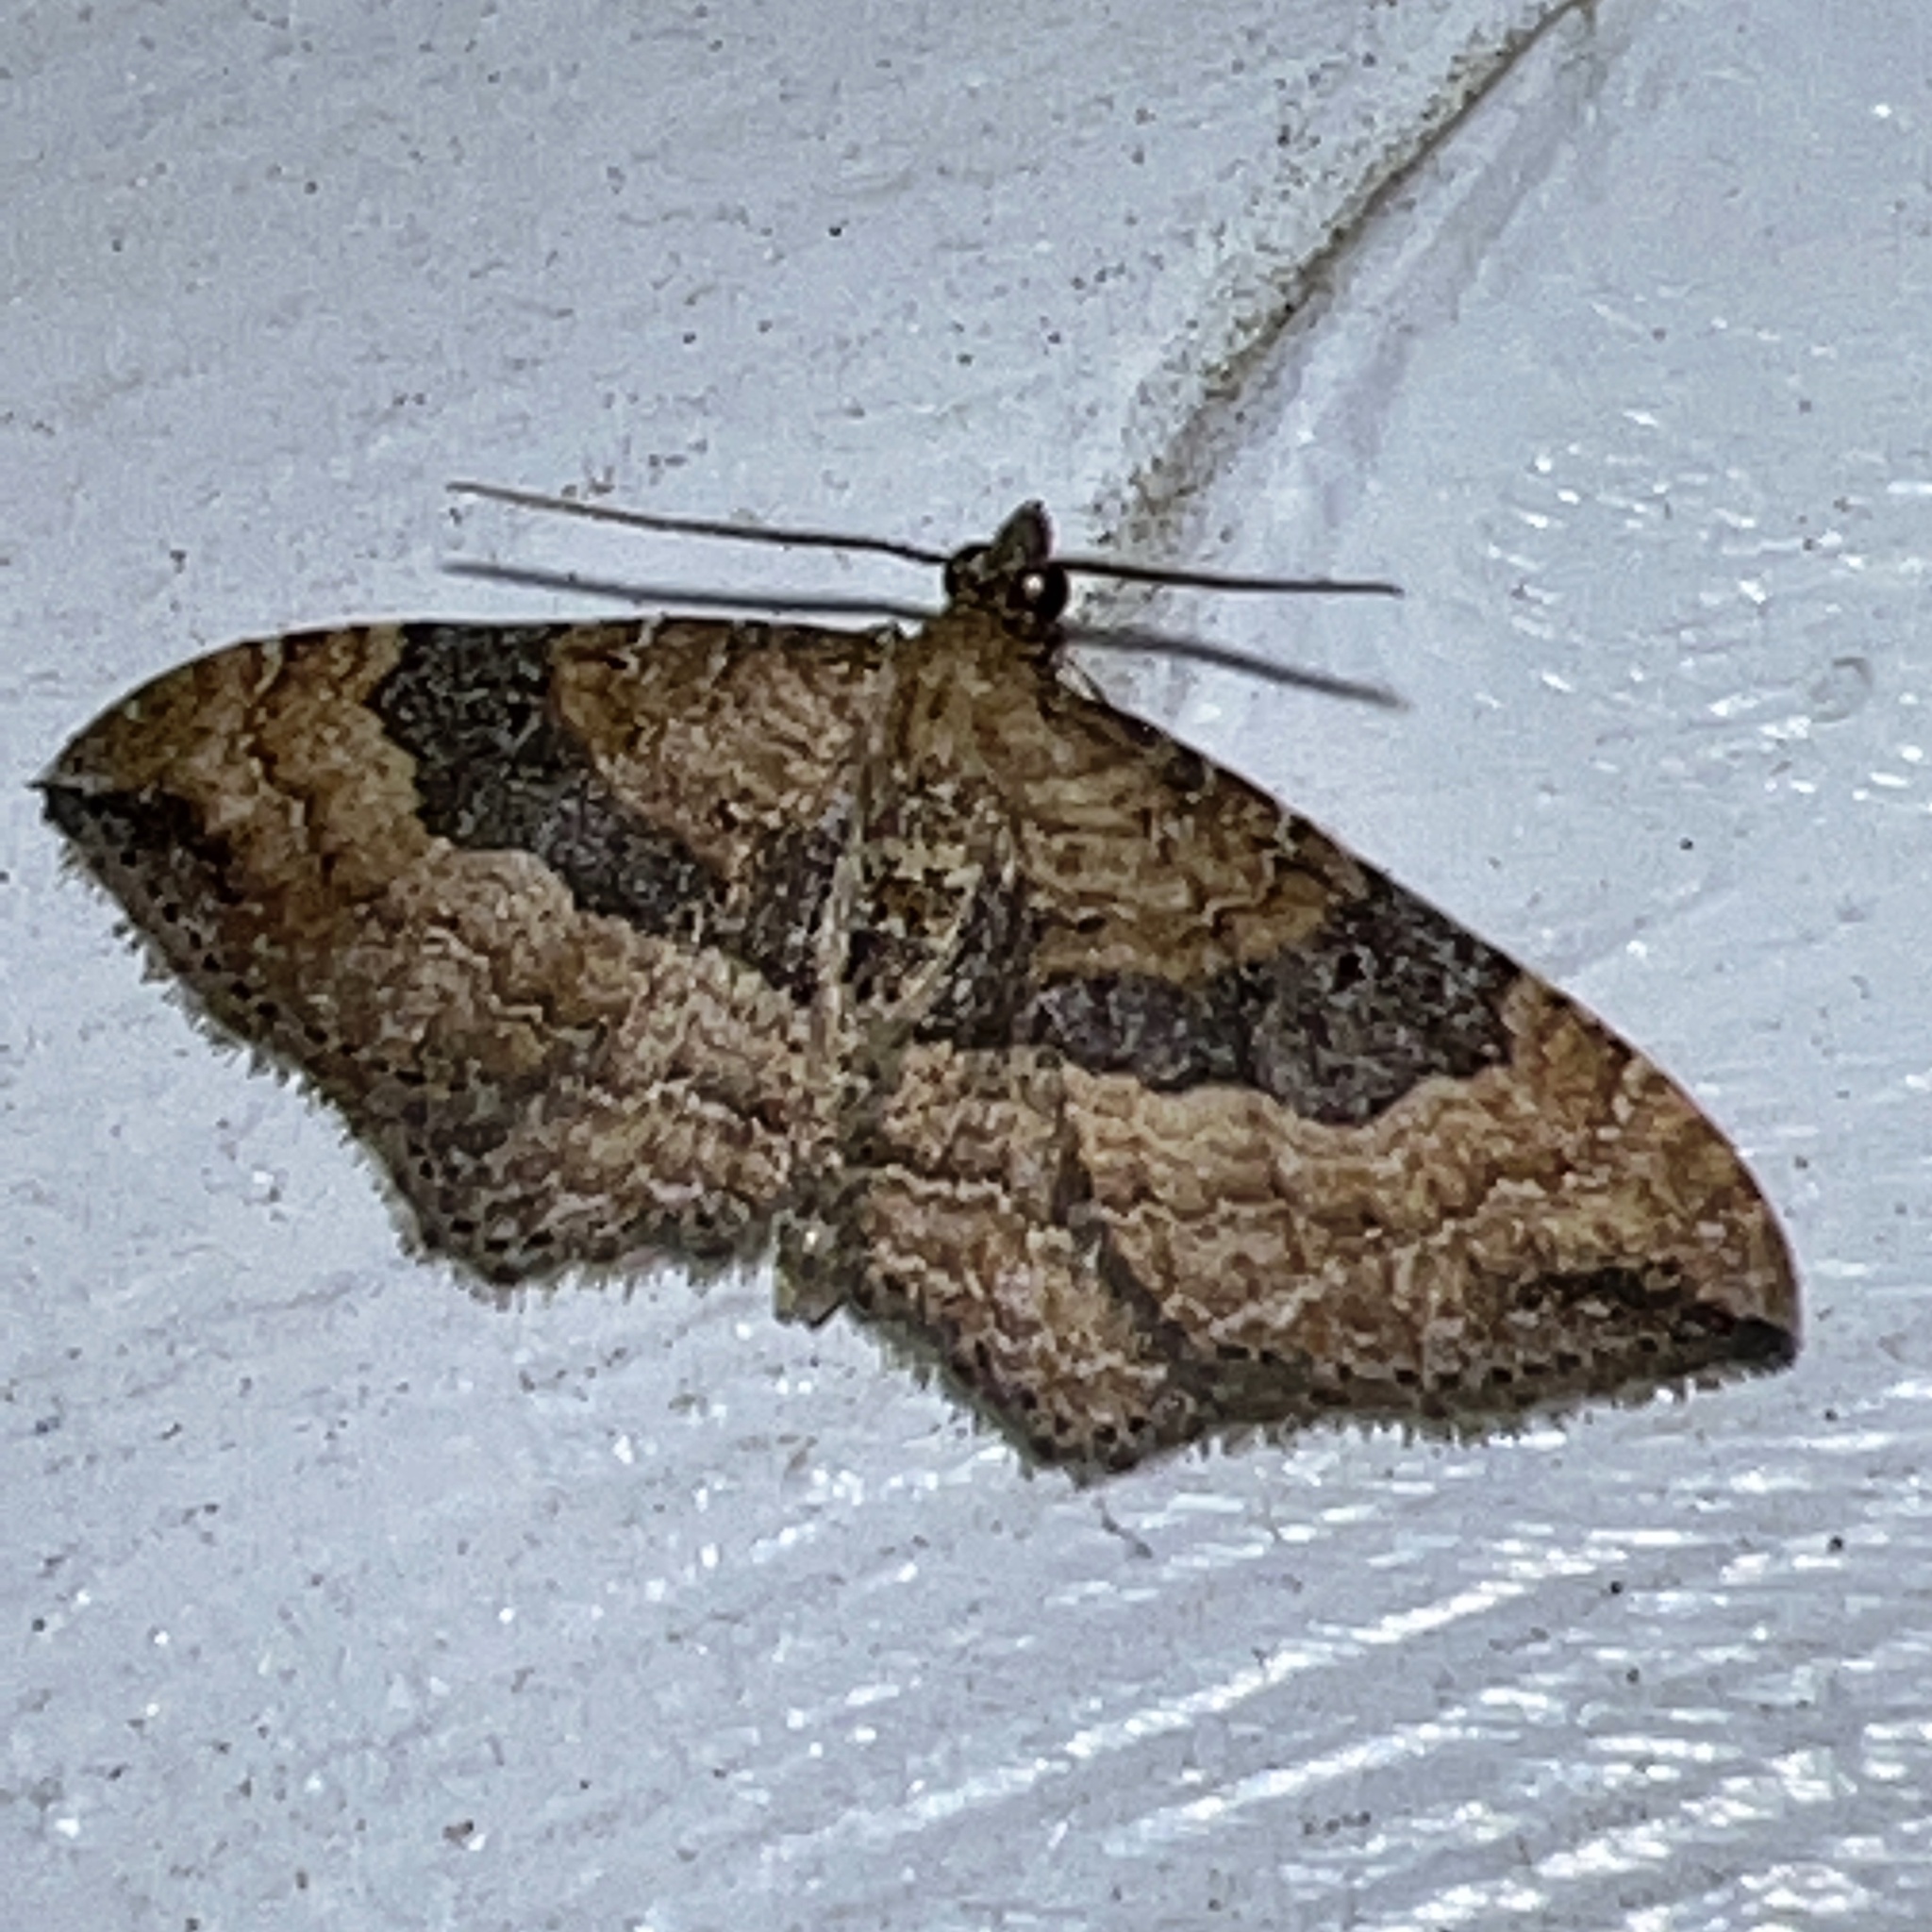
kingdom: Animalia
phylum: Arthropoda
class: Insecta
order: Lepidoptera
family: Geometridae
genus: Orthonama
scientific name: Orthonama obstipata
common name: The gem
